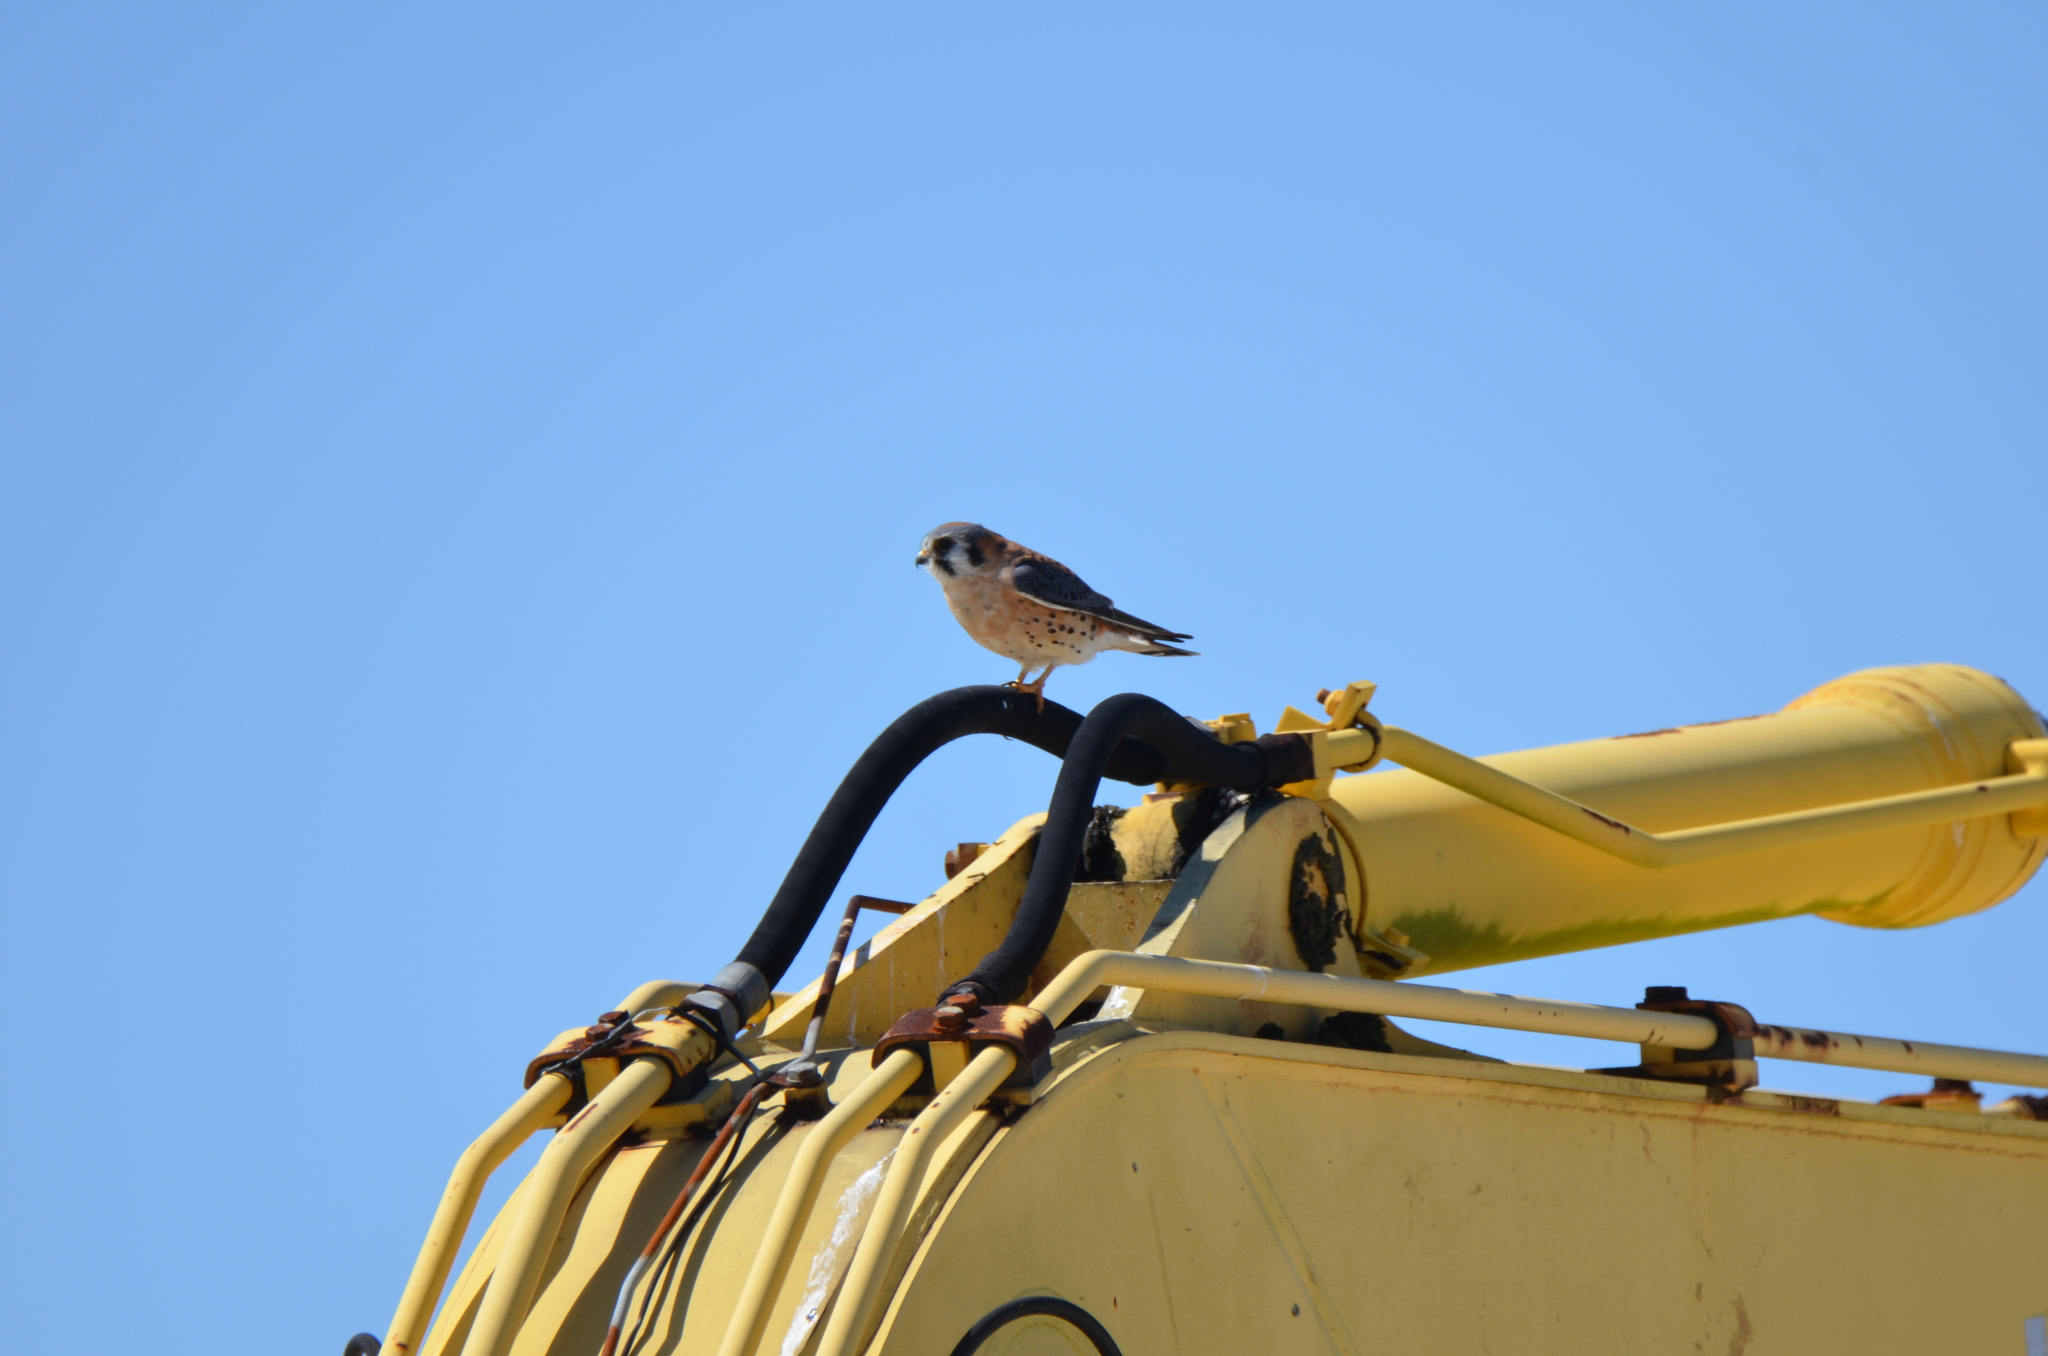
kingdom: Animalia
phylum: Chordata
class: Aves
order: Falconiformes
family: Falconidae
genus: Falco
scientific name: Falco sparverius
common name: American kestrel
